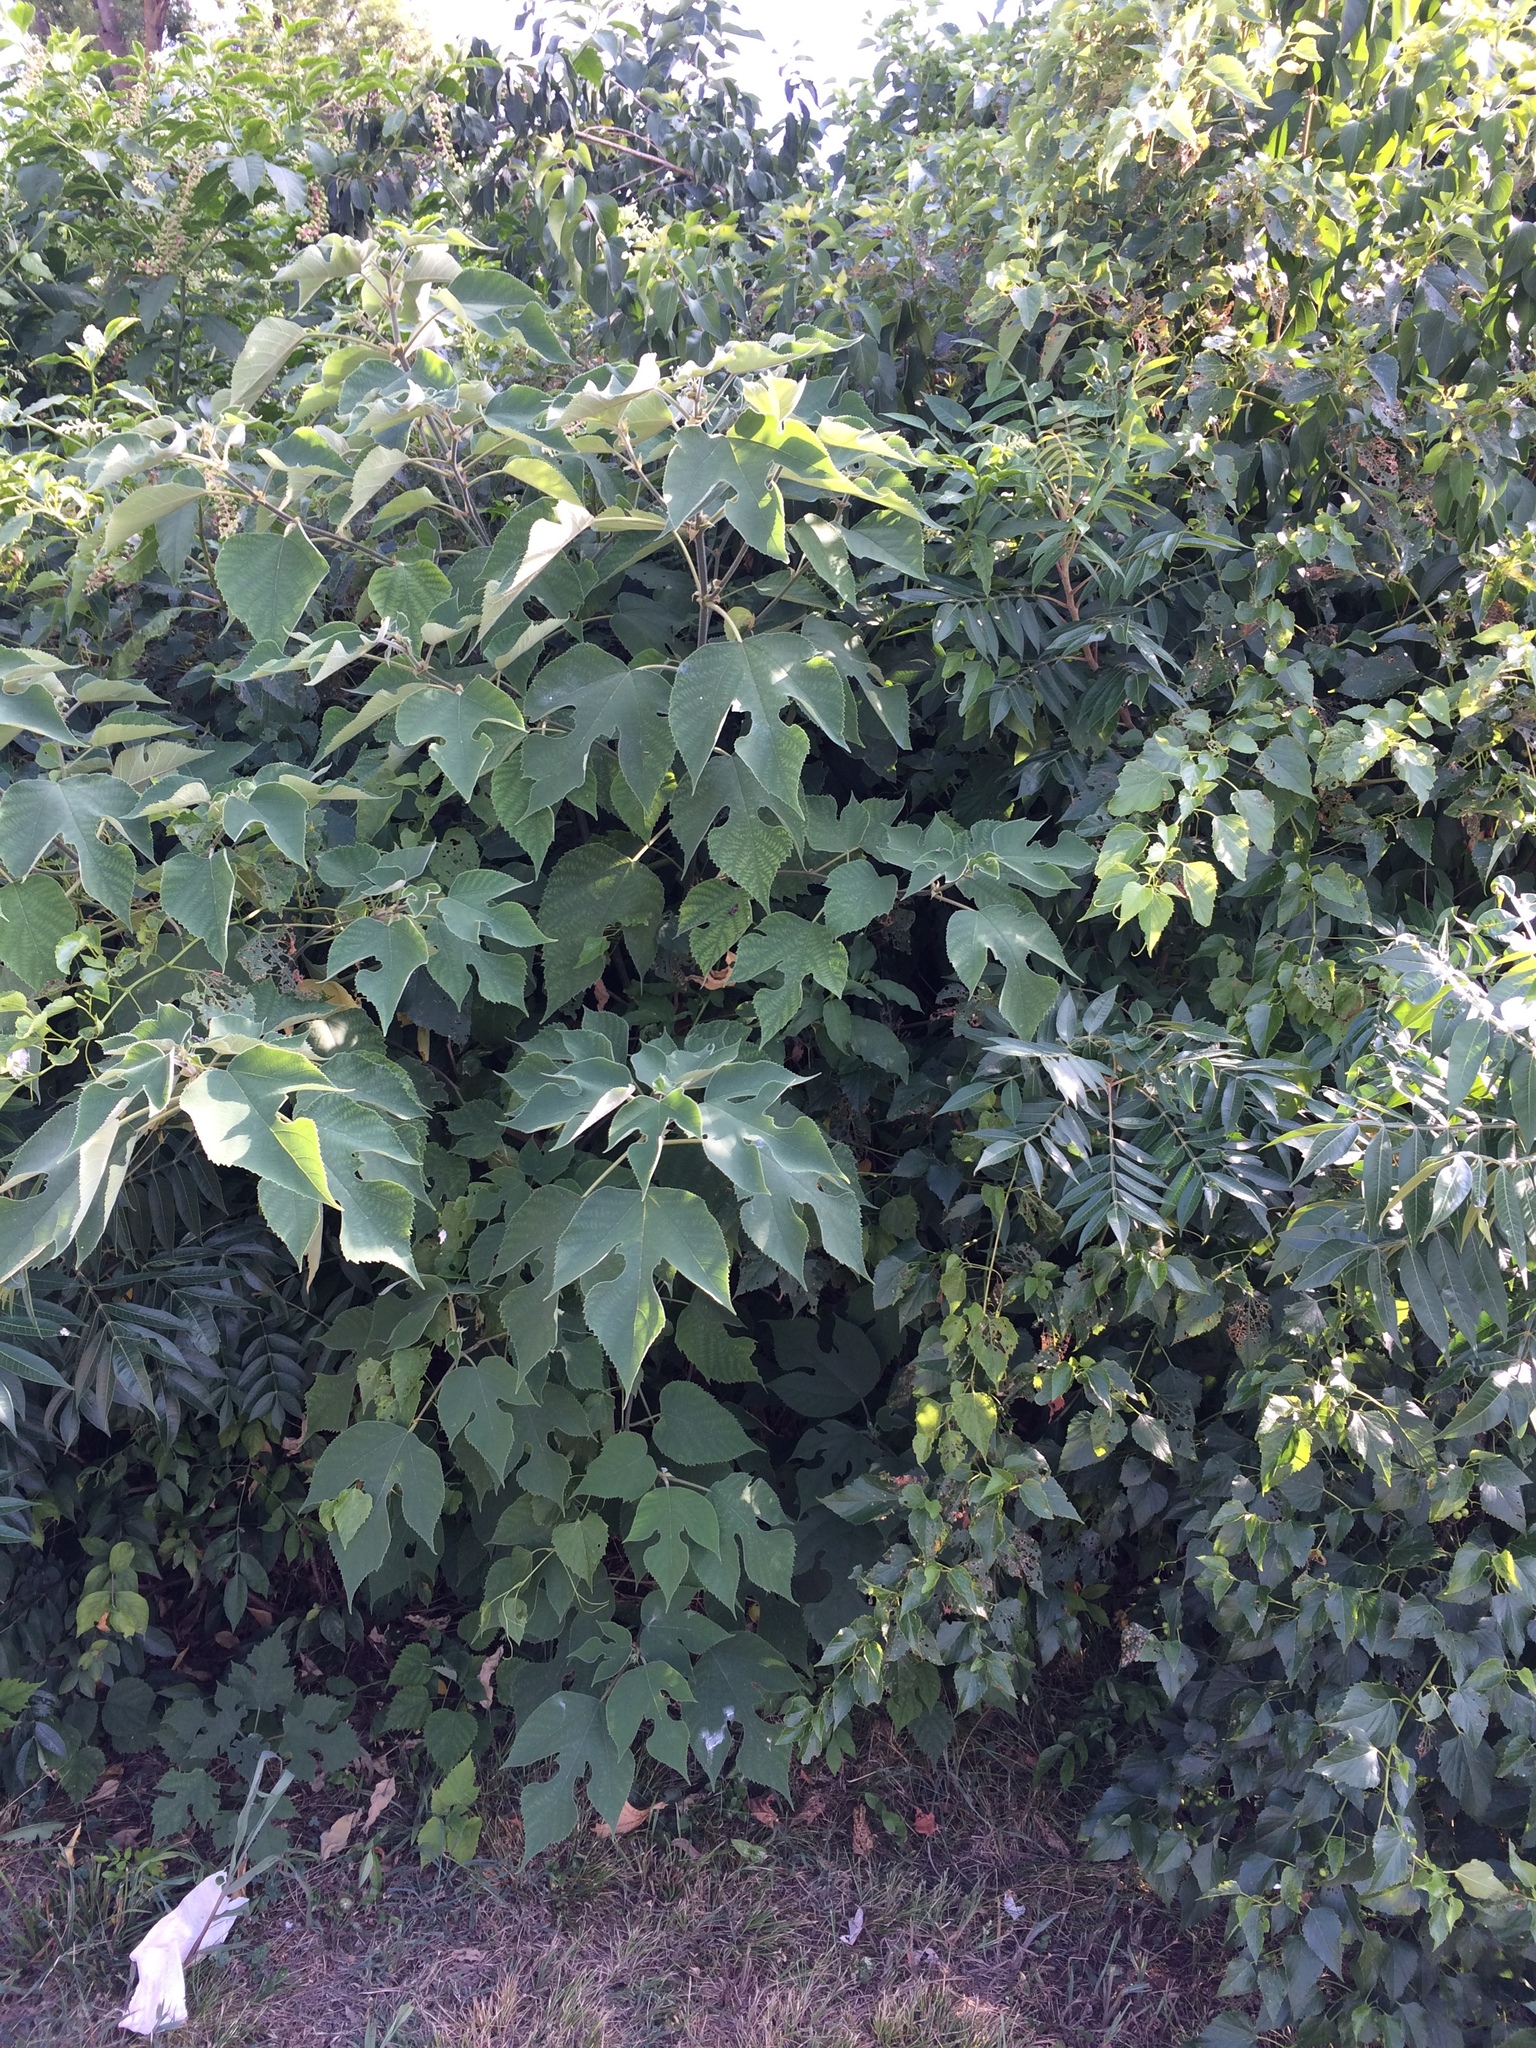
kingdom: Plantae
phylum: Tracheophyta
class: Magnoliopsida
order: Rosales
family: Moraceae
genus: Broussonetia
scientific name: Broussonetia papyrifera
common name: Paper mulberry
